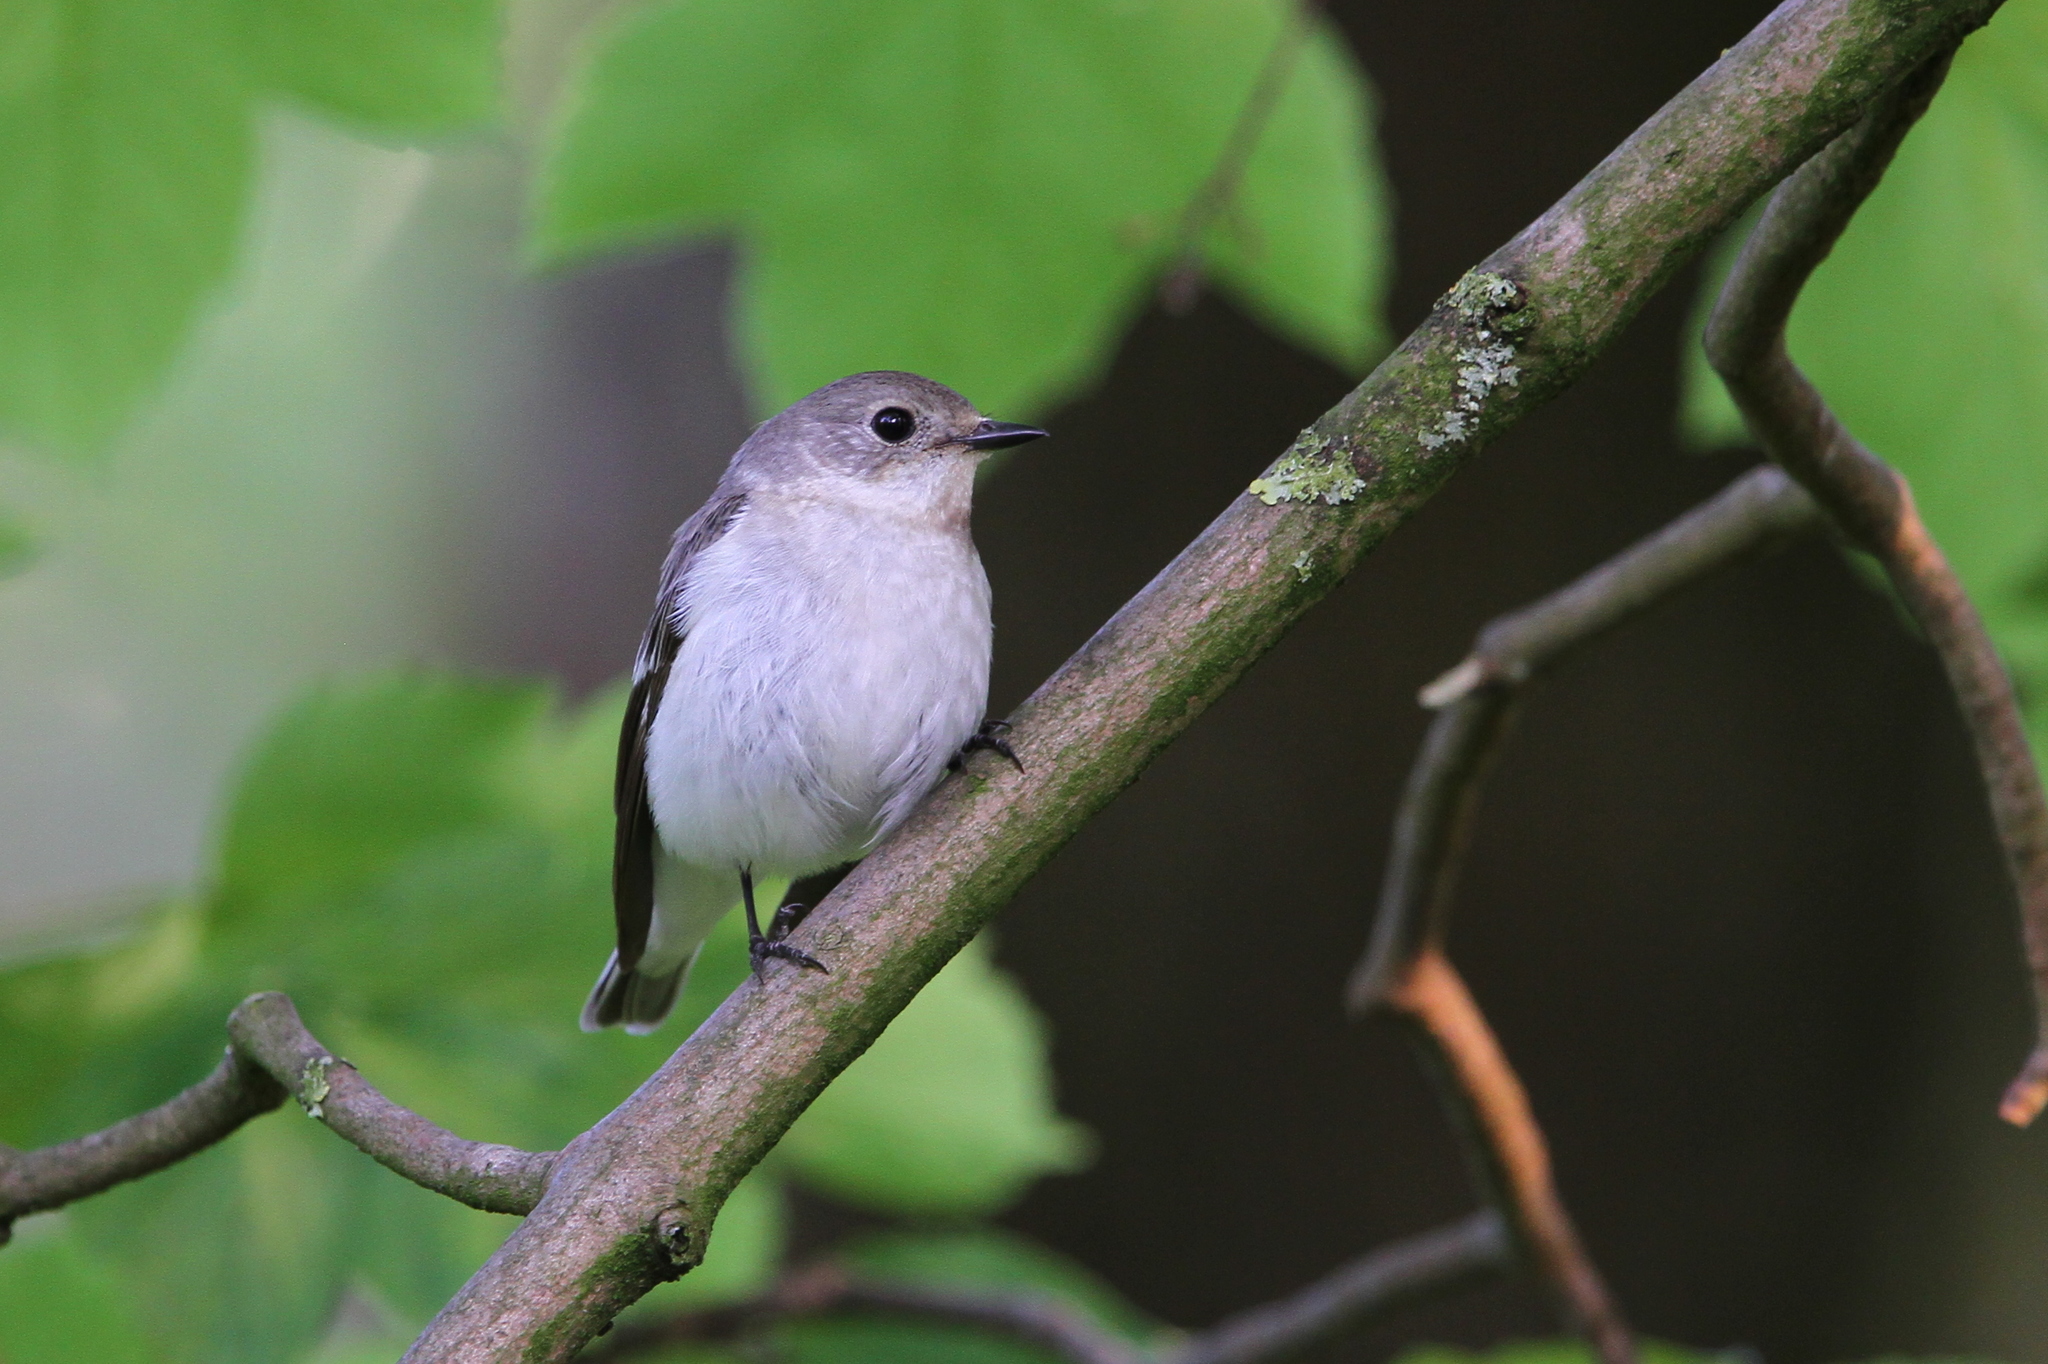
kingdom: Animalia
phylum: Chordata
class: Aves
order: Passeriformes
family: Muscicapidae
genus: Ficedula
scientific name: Ficedula albicollis
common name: Collared flycatcher
